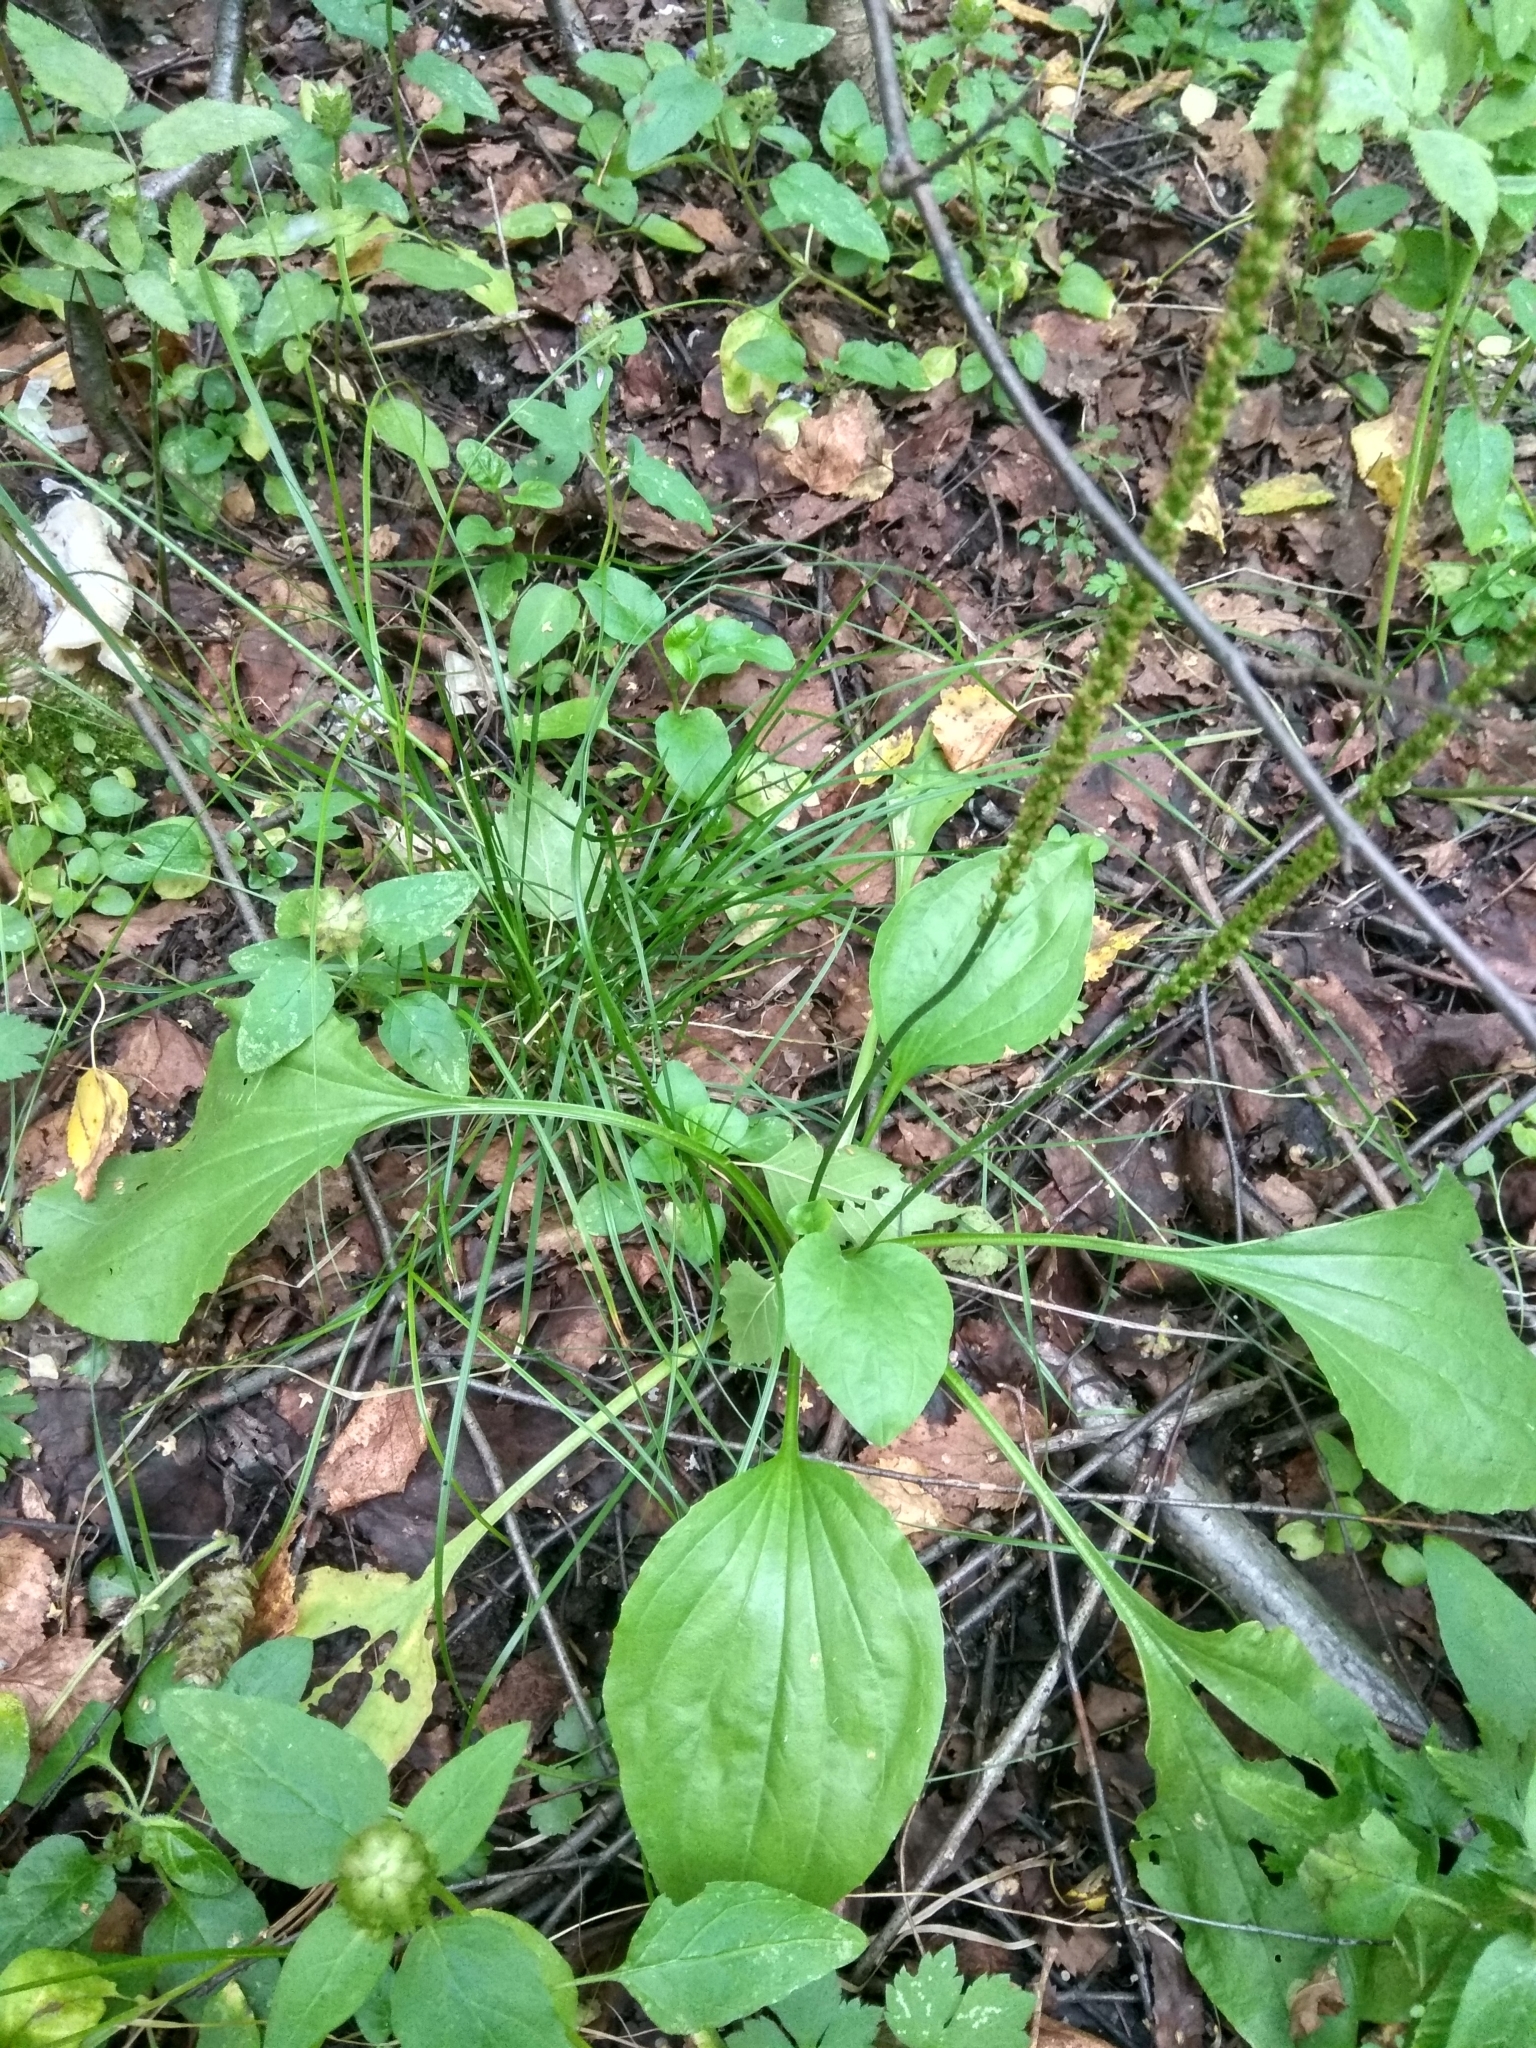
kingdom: Plantae
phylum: Tracheophyta
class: Magnoliopsida
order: Lamiales
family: Plantaginaceae
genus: Plantago
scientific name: Plantago major
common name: Common plantain
